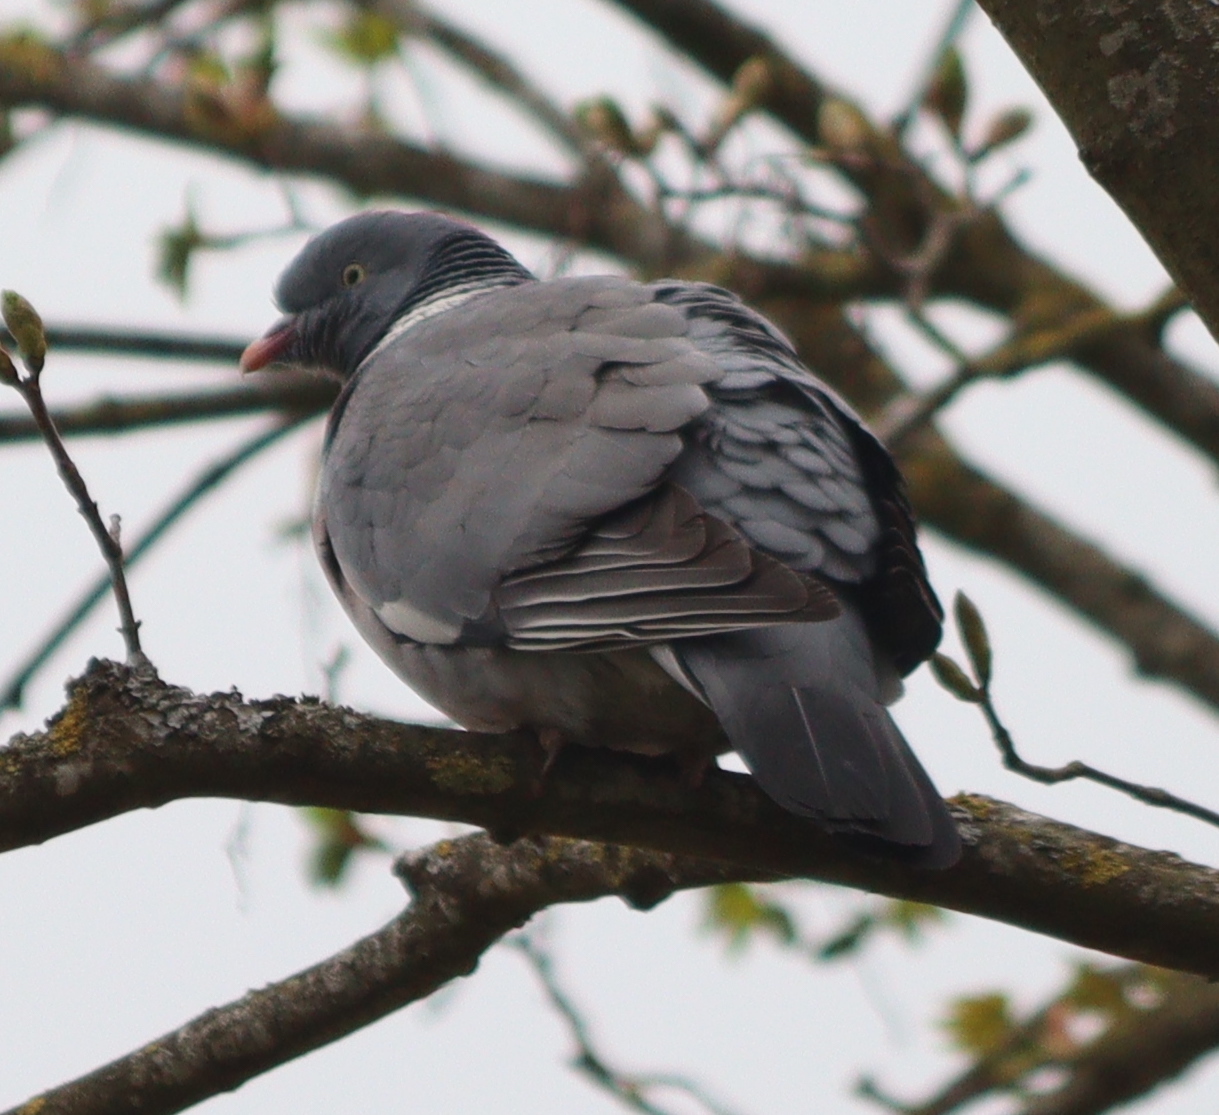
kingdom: Animalia
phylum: Chordata
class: Aves
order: Columbiformes
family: Columbidae
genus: Columba
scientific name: Columba palumbus
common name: Common wood pigeon
